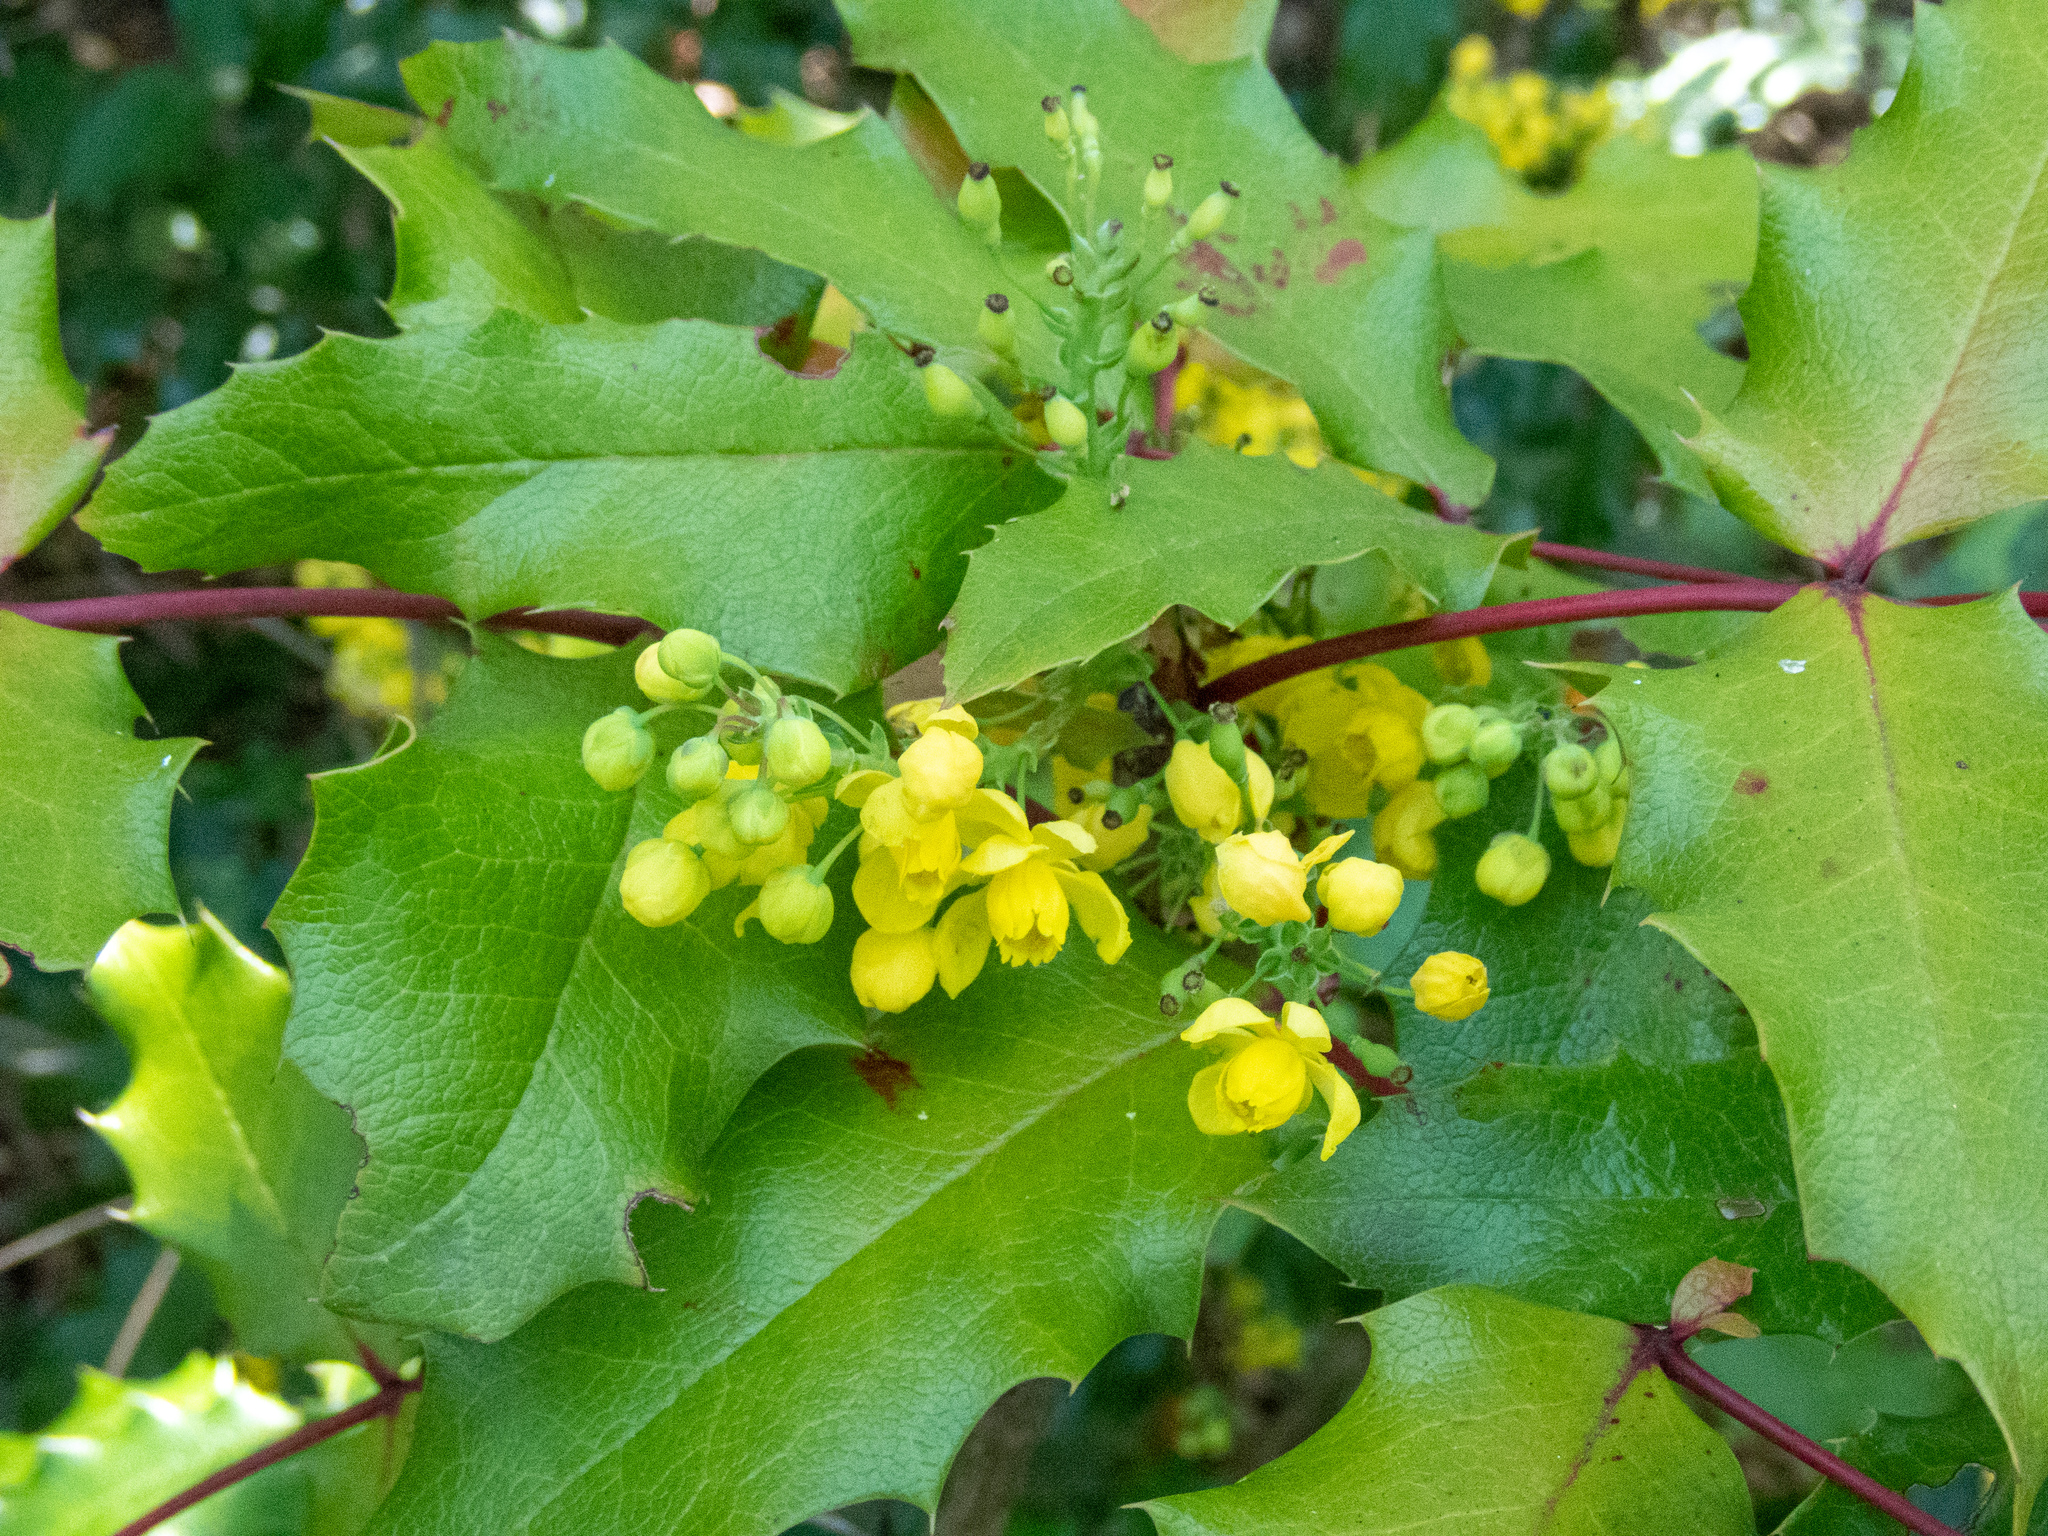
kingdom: Plantae
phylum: Tracheophyta
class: Magnoliopsida
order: Ranunculales
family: Berberidaceae
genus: Mahonia
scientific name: Mahonia aquifolium
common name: Oregon-grape
